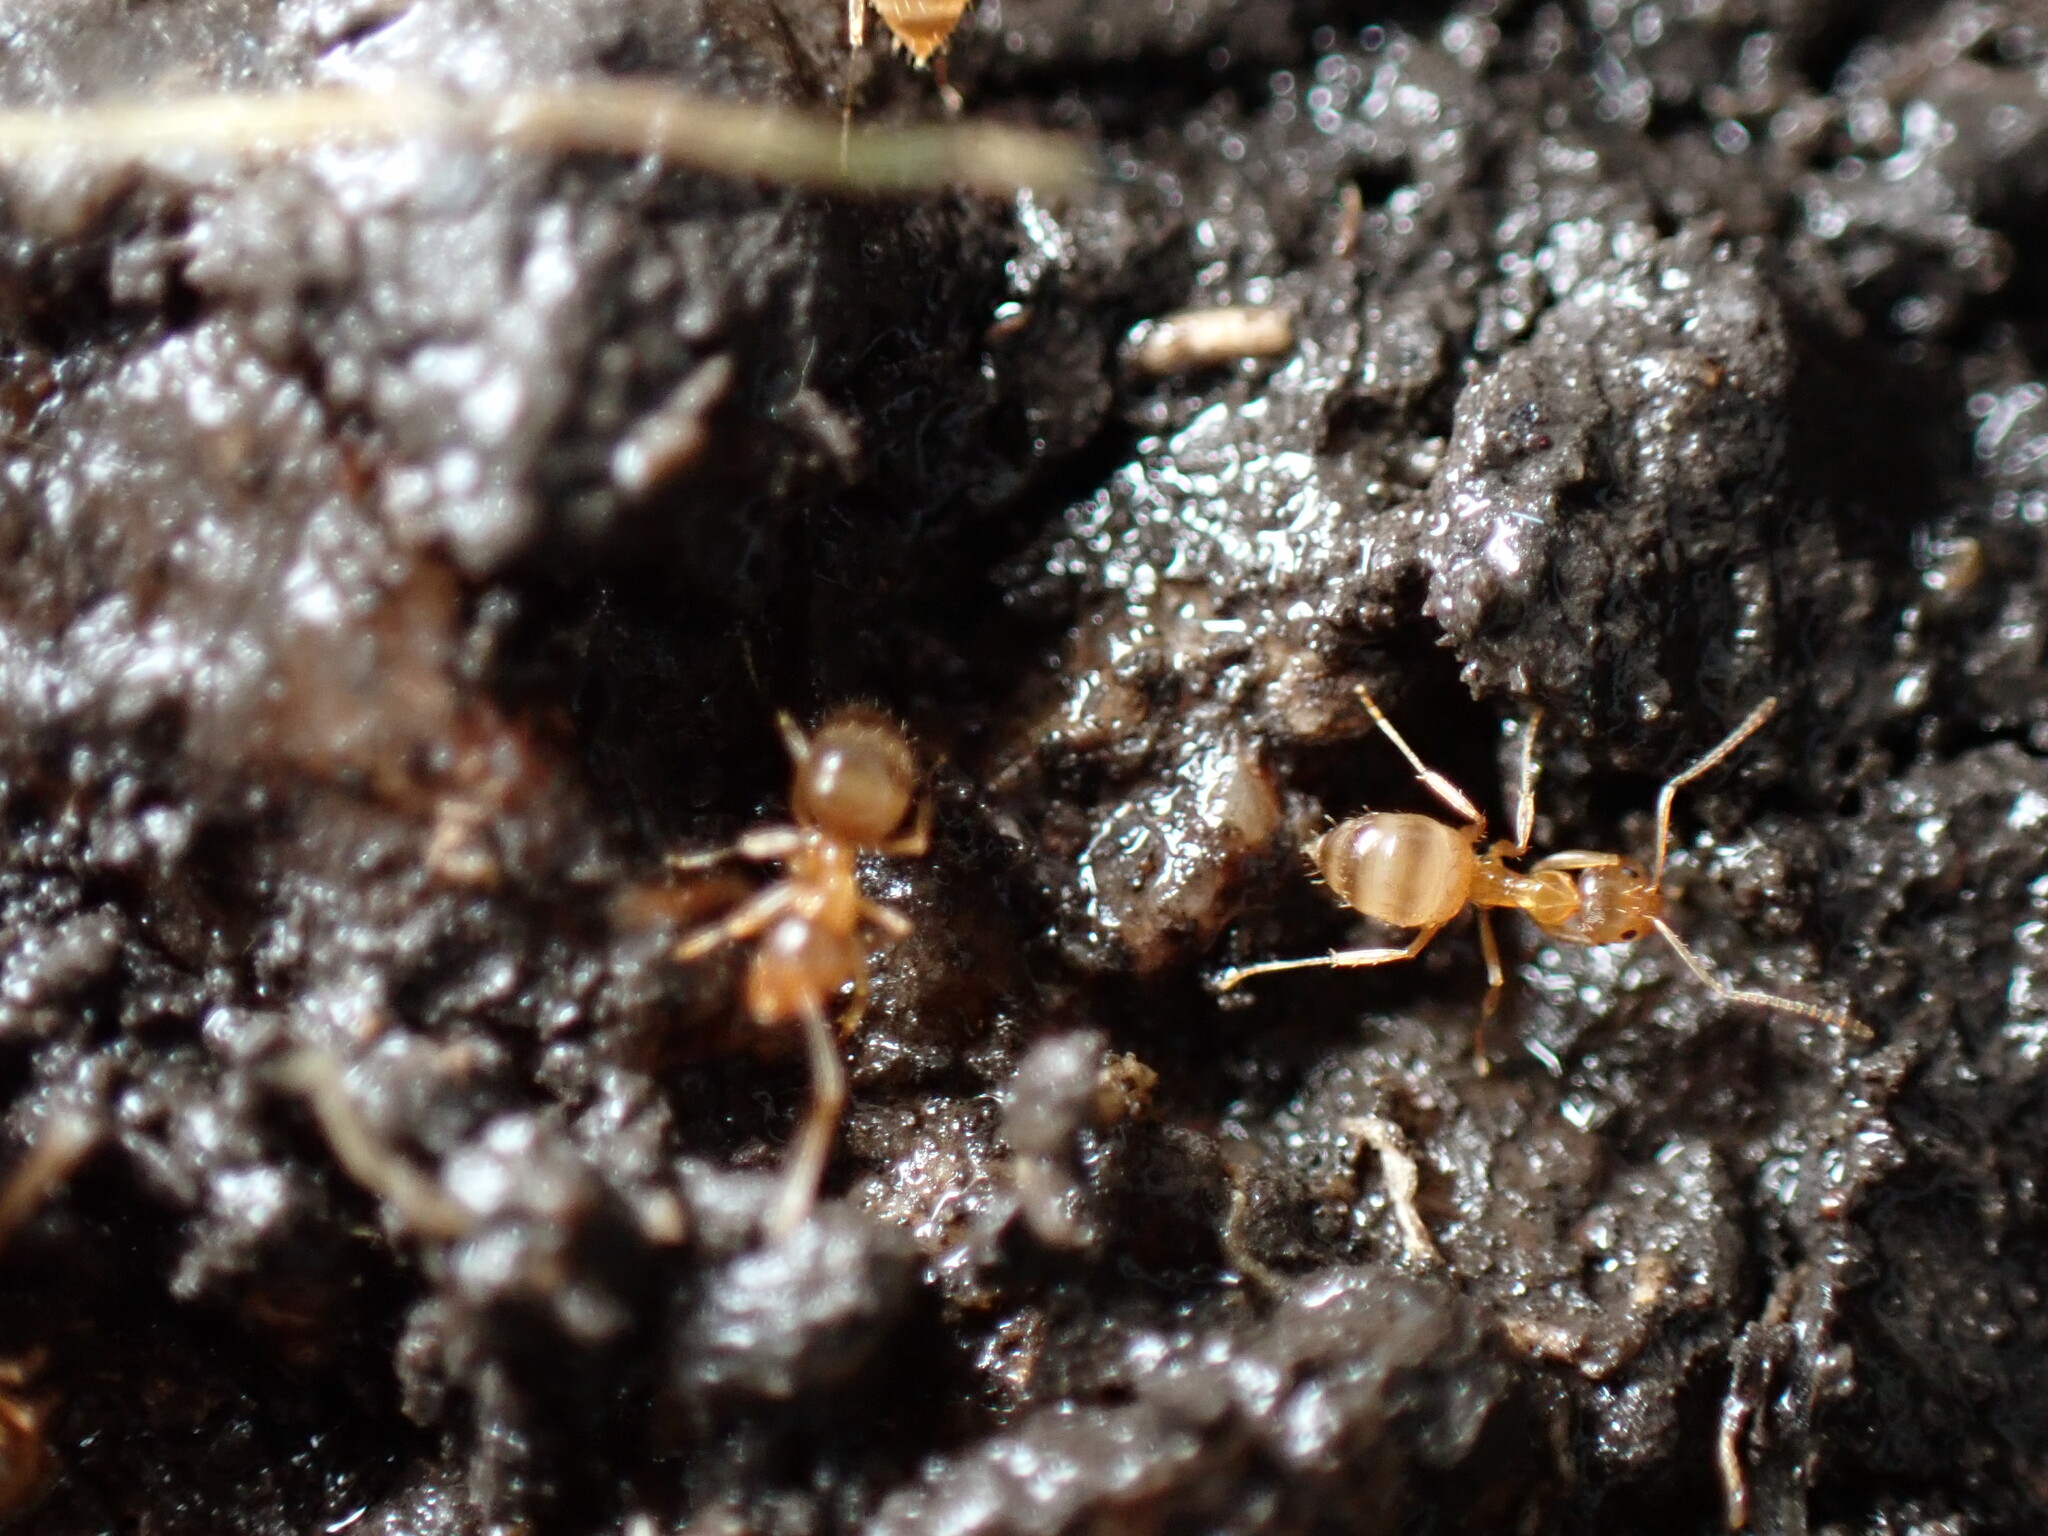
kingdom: Animalia
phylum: Arthropoda
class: Insecta
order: Hymenoptera
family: Formicidae
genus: Paratrechina
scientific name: Paratrechina flavipes
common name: Eastern asian formicine ant
